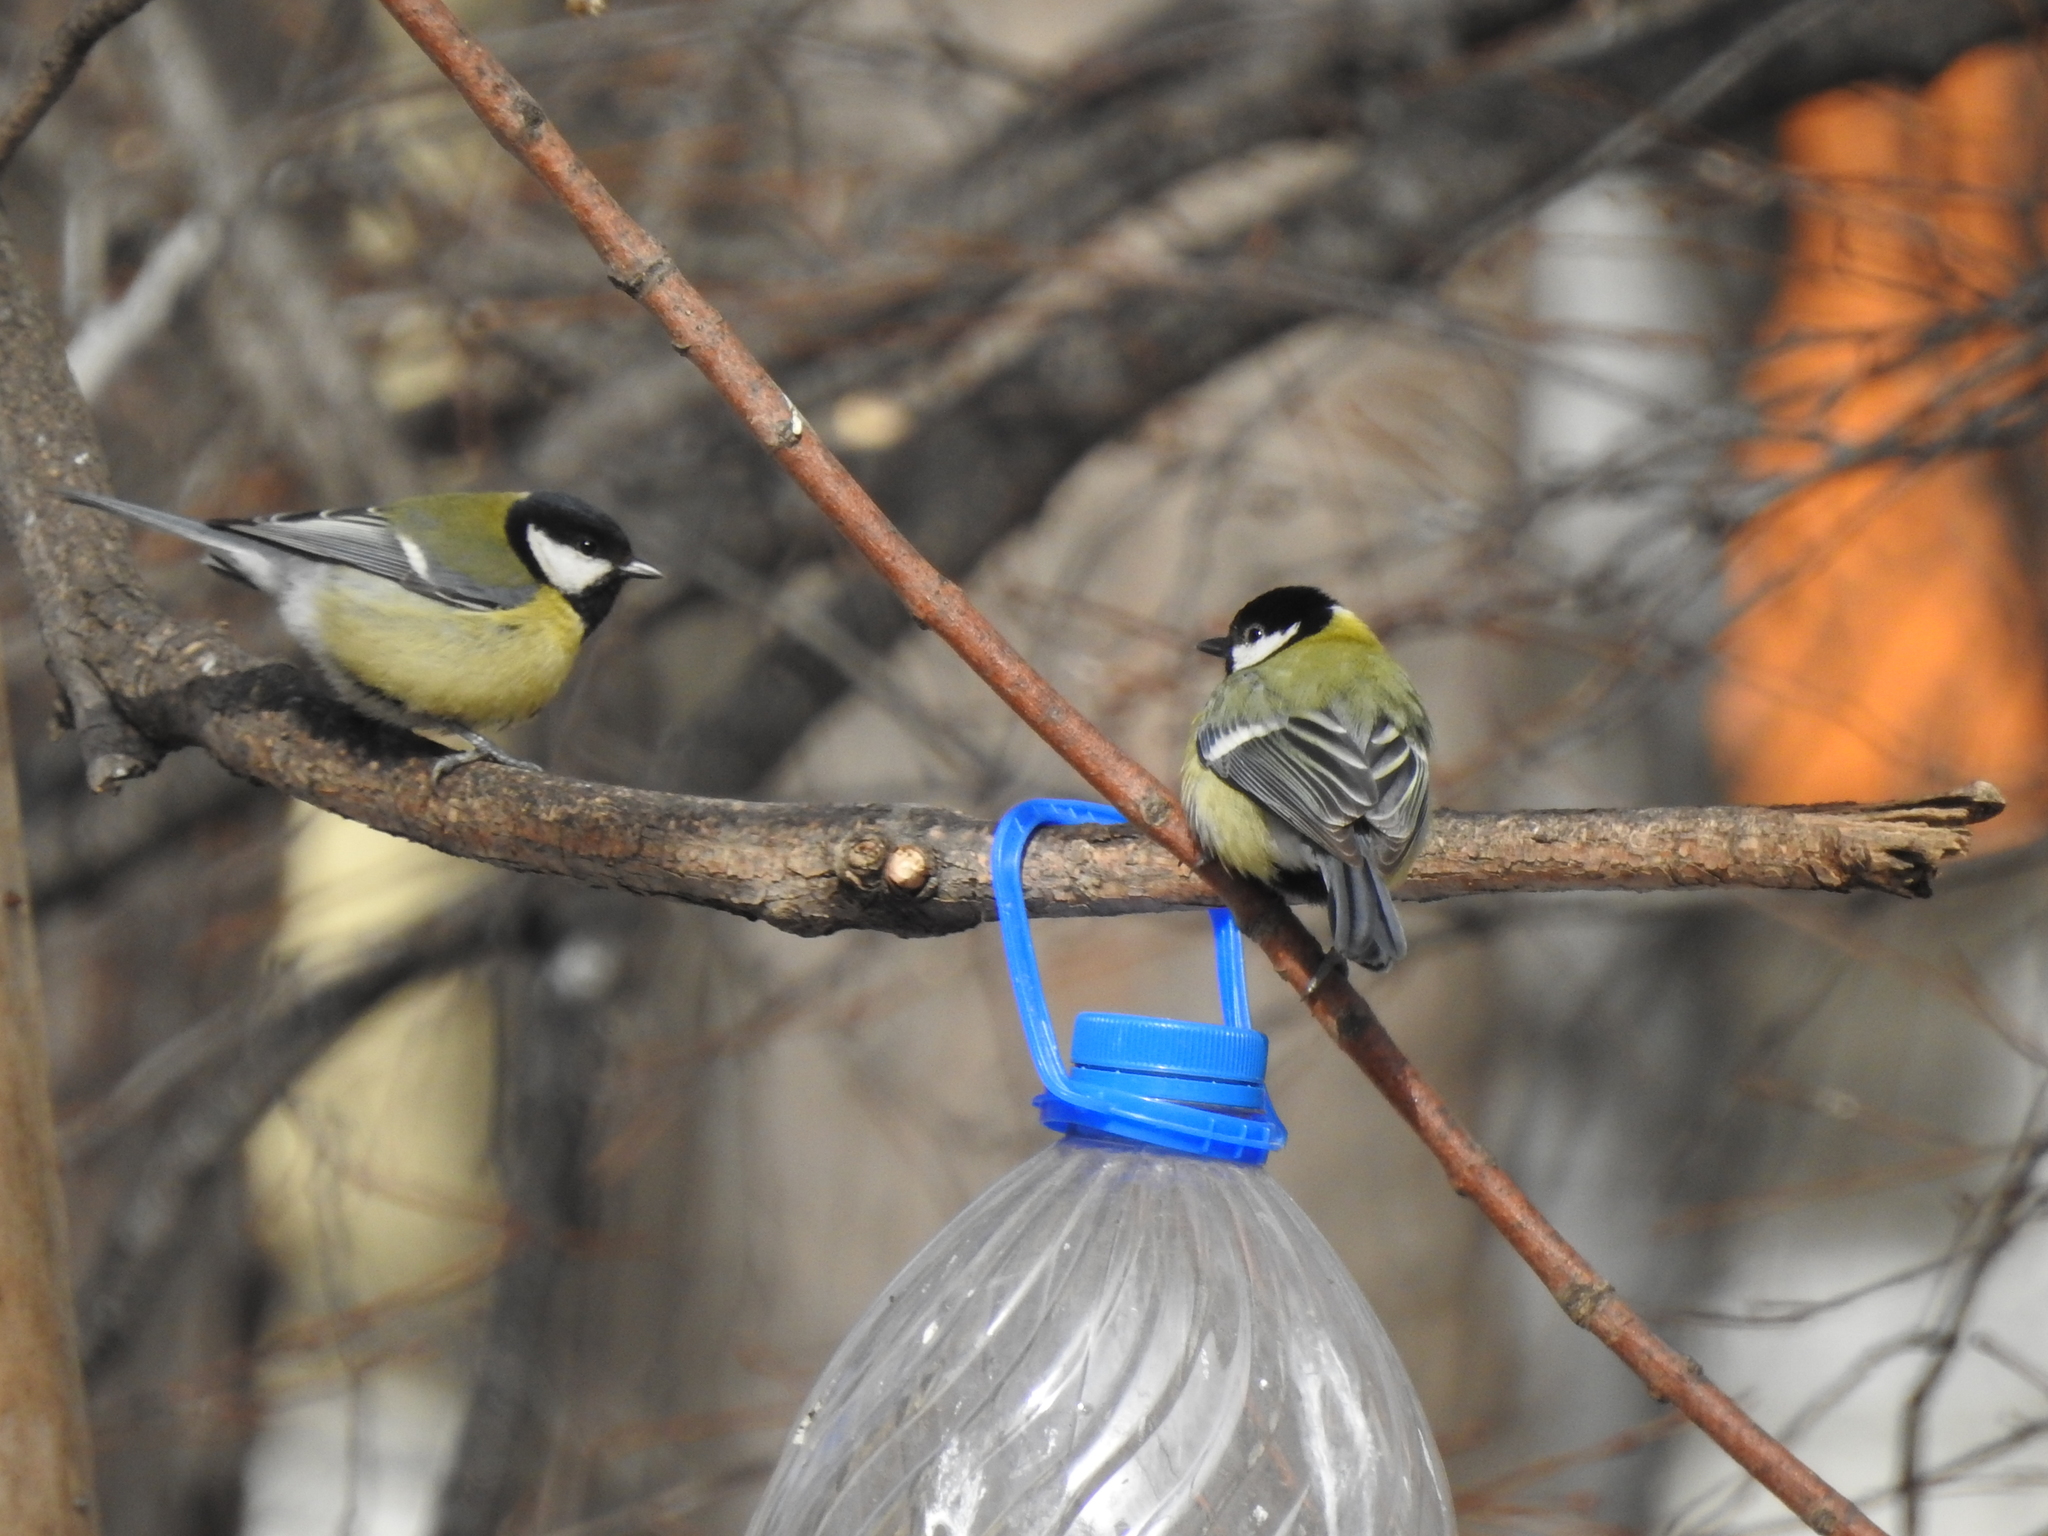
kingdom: Animalia
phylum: Chordata
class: Aves
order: Passeriformes
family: Paridae
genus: Parus
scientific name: Parus major
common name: Great tit
